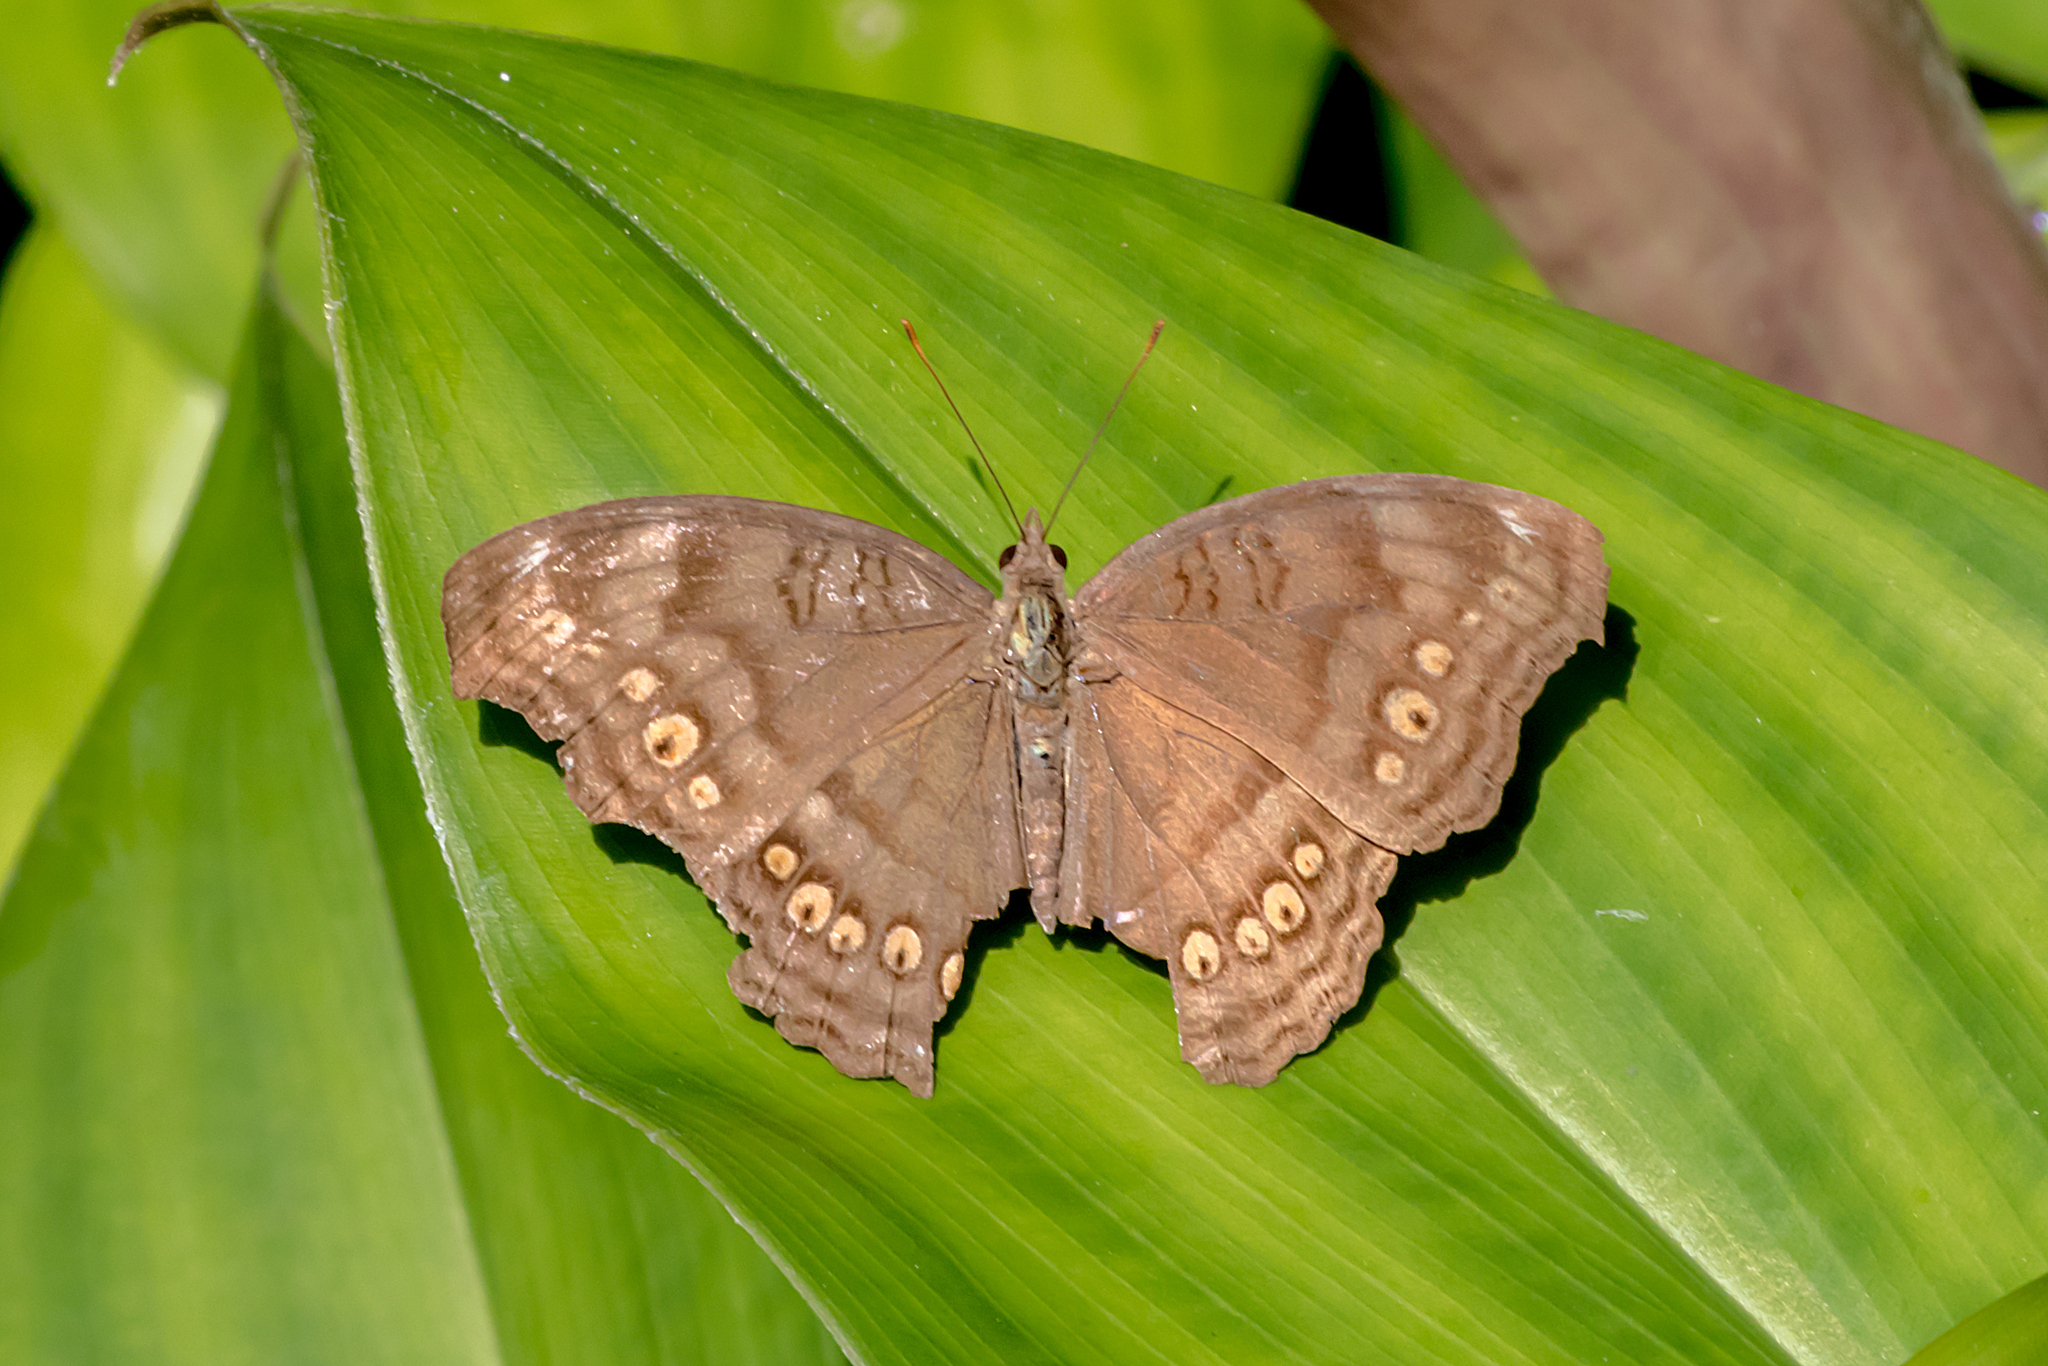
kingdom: Animalia
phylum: Arthropoda
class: Insecta
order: Lepidoptera
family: Nymphalidae
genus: Junonia
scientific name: Junonia hedonia
